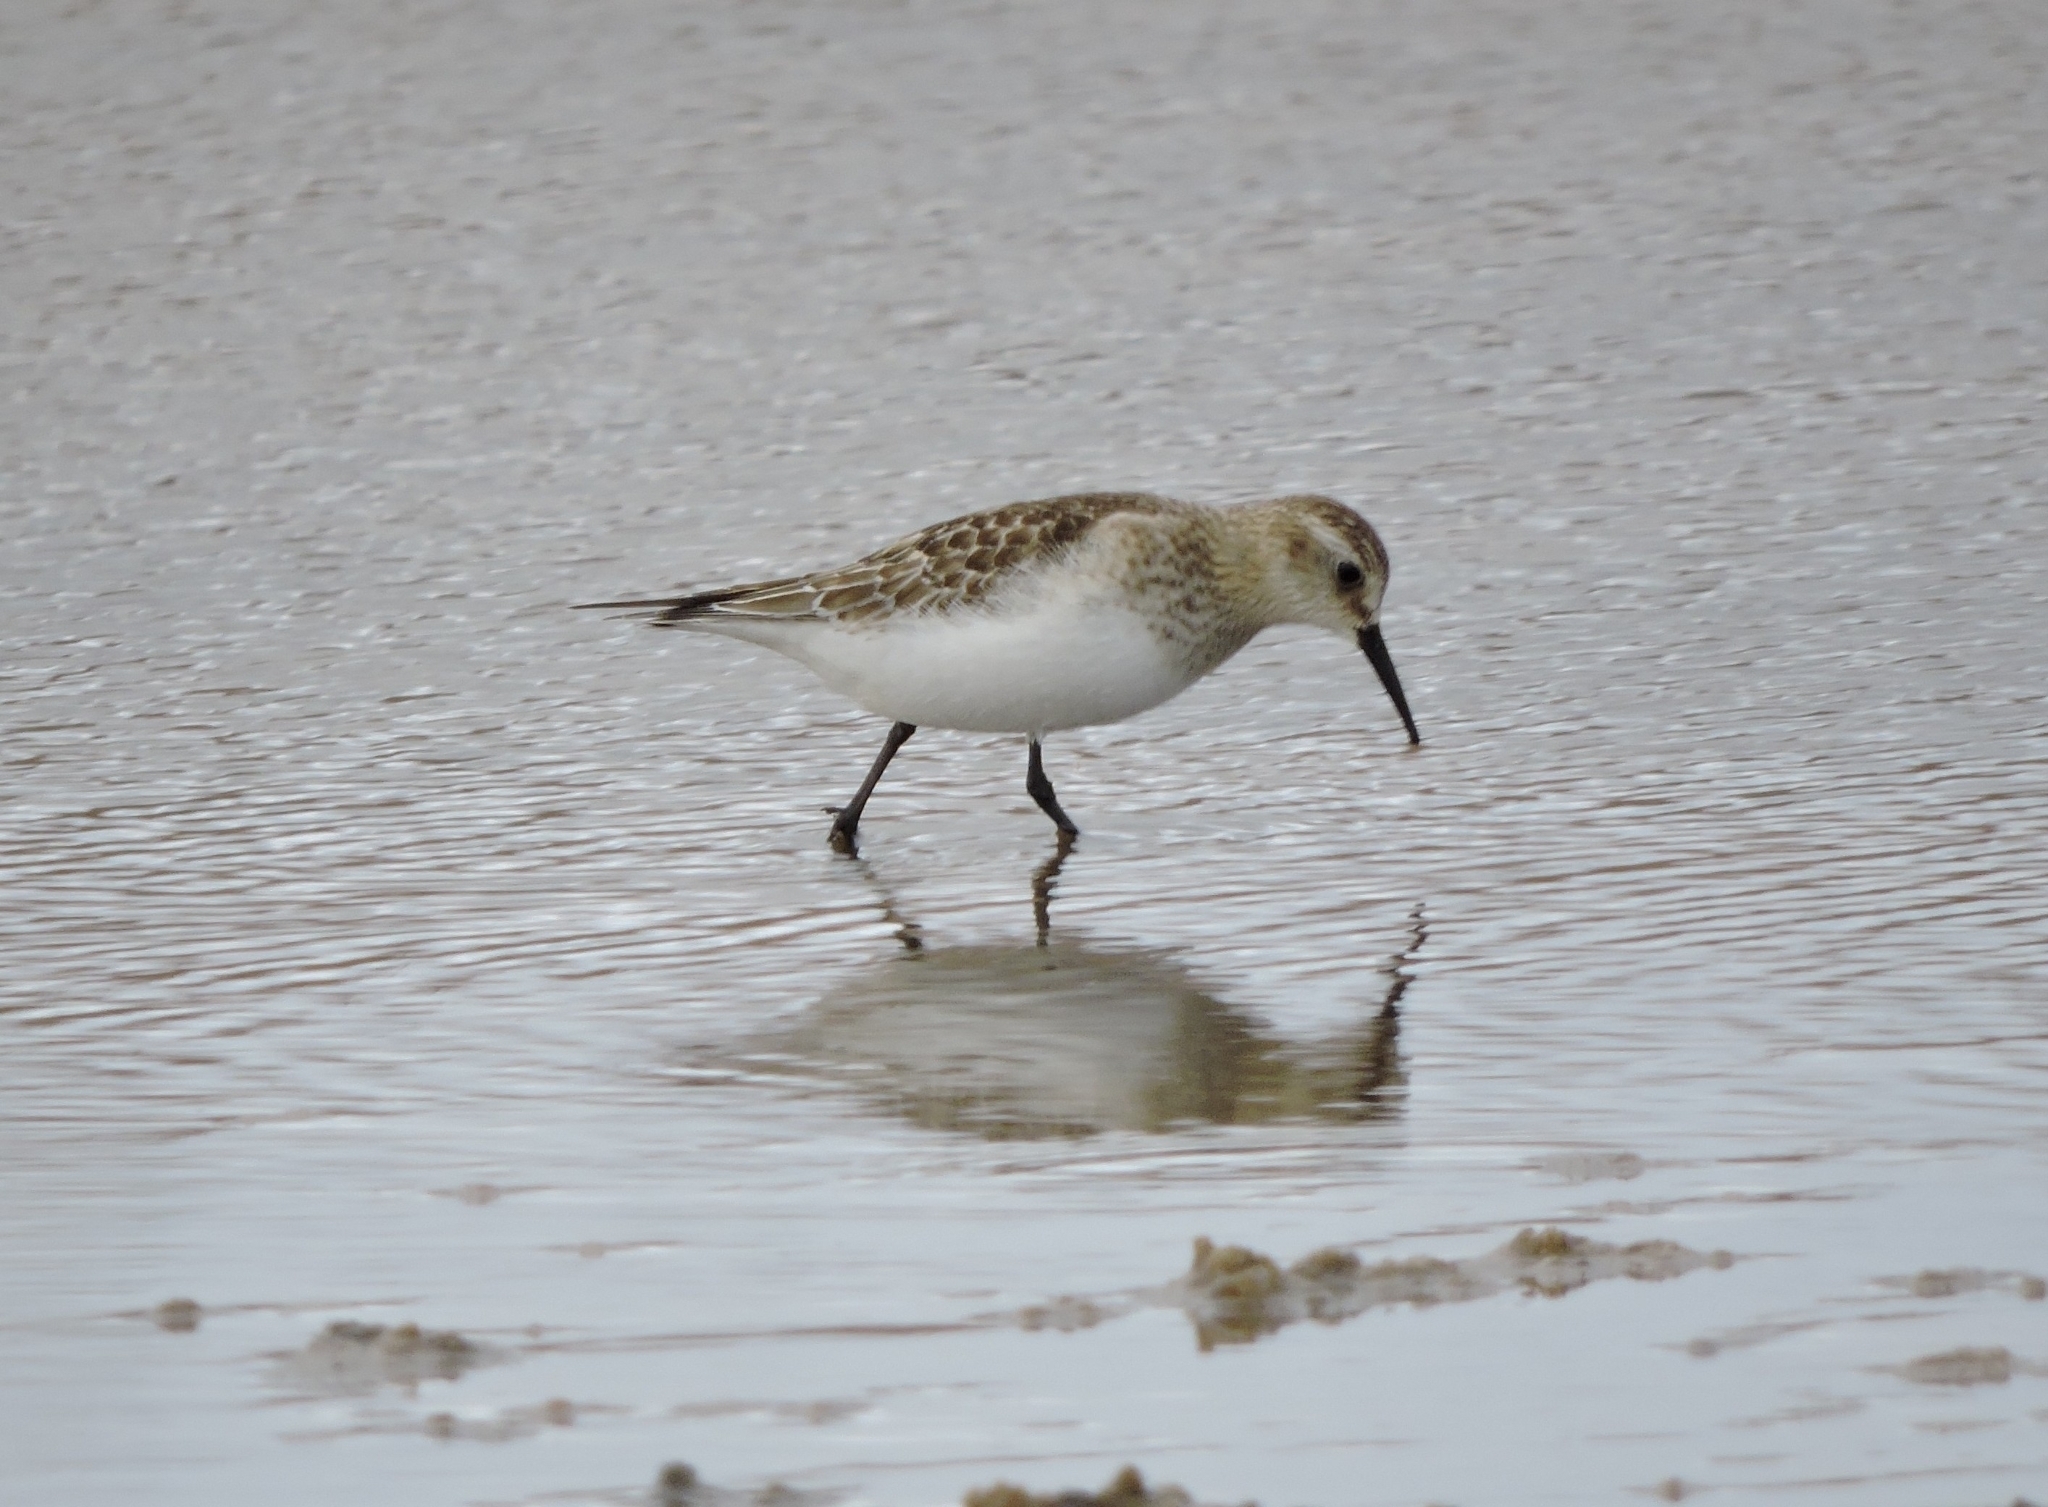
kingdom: Animalia
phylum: Chordata
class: Aves
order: Charadriiformes
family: Scolopacidae
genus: Calidris
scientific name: Calidris bairdii
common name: Baird's sandpiper
